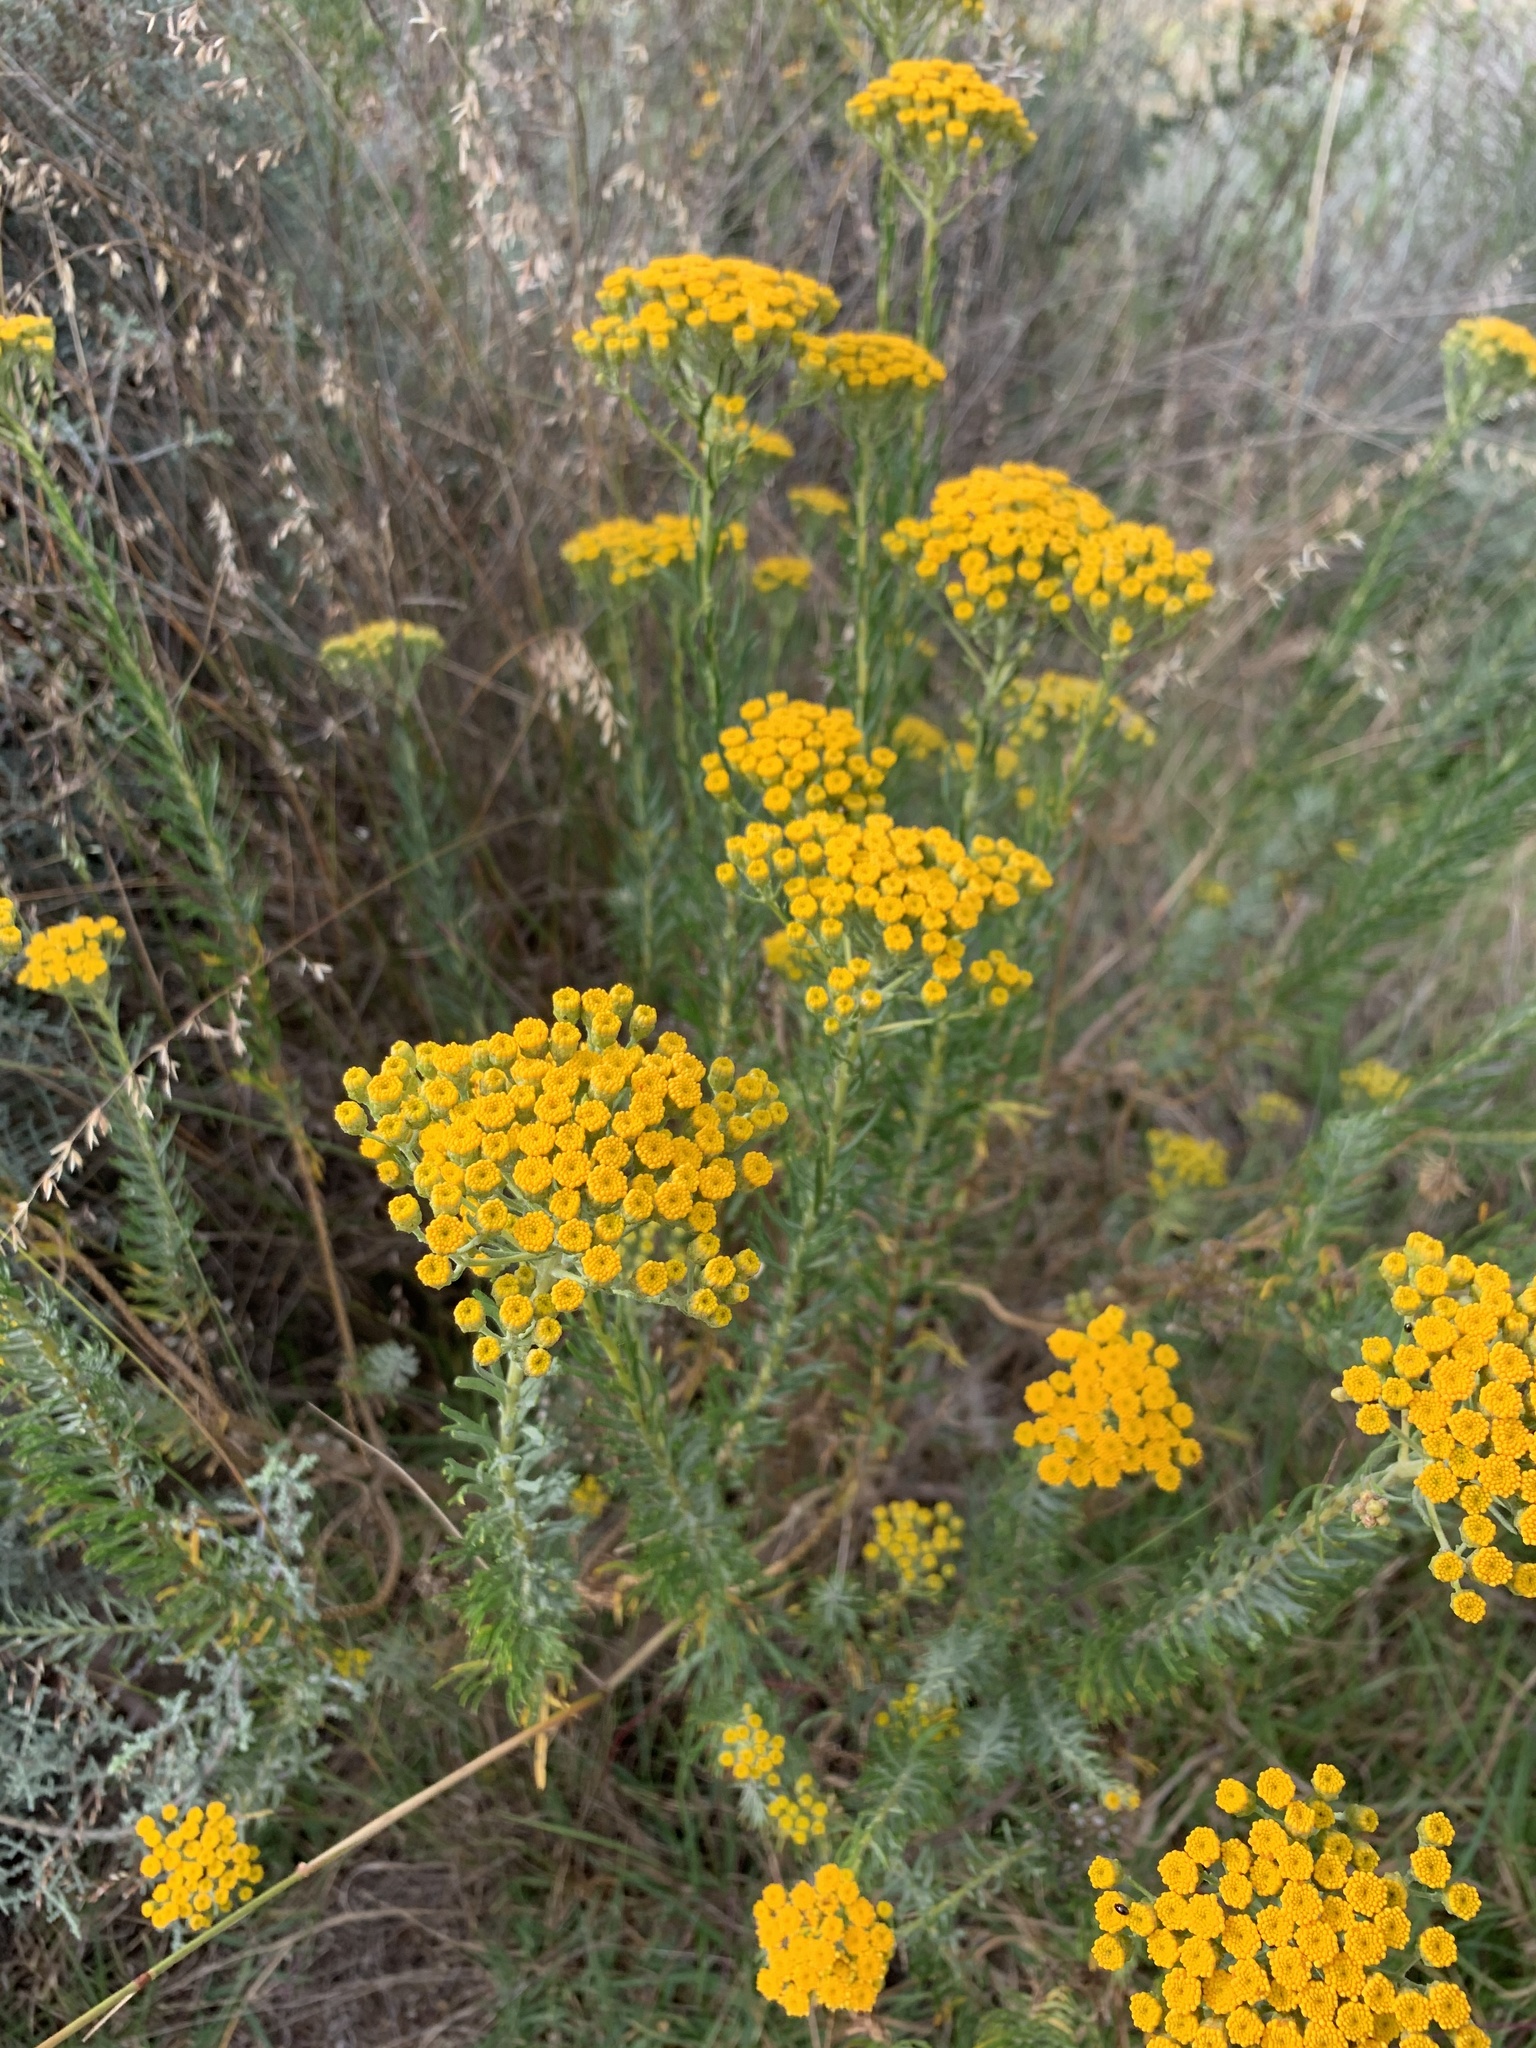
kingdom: Plantae
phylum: Tracheophyta
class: Magnoliopsida
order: Asterales
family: Asteraceae
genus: Athanasia
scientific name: Athanasia trifurcata
